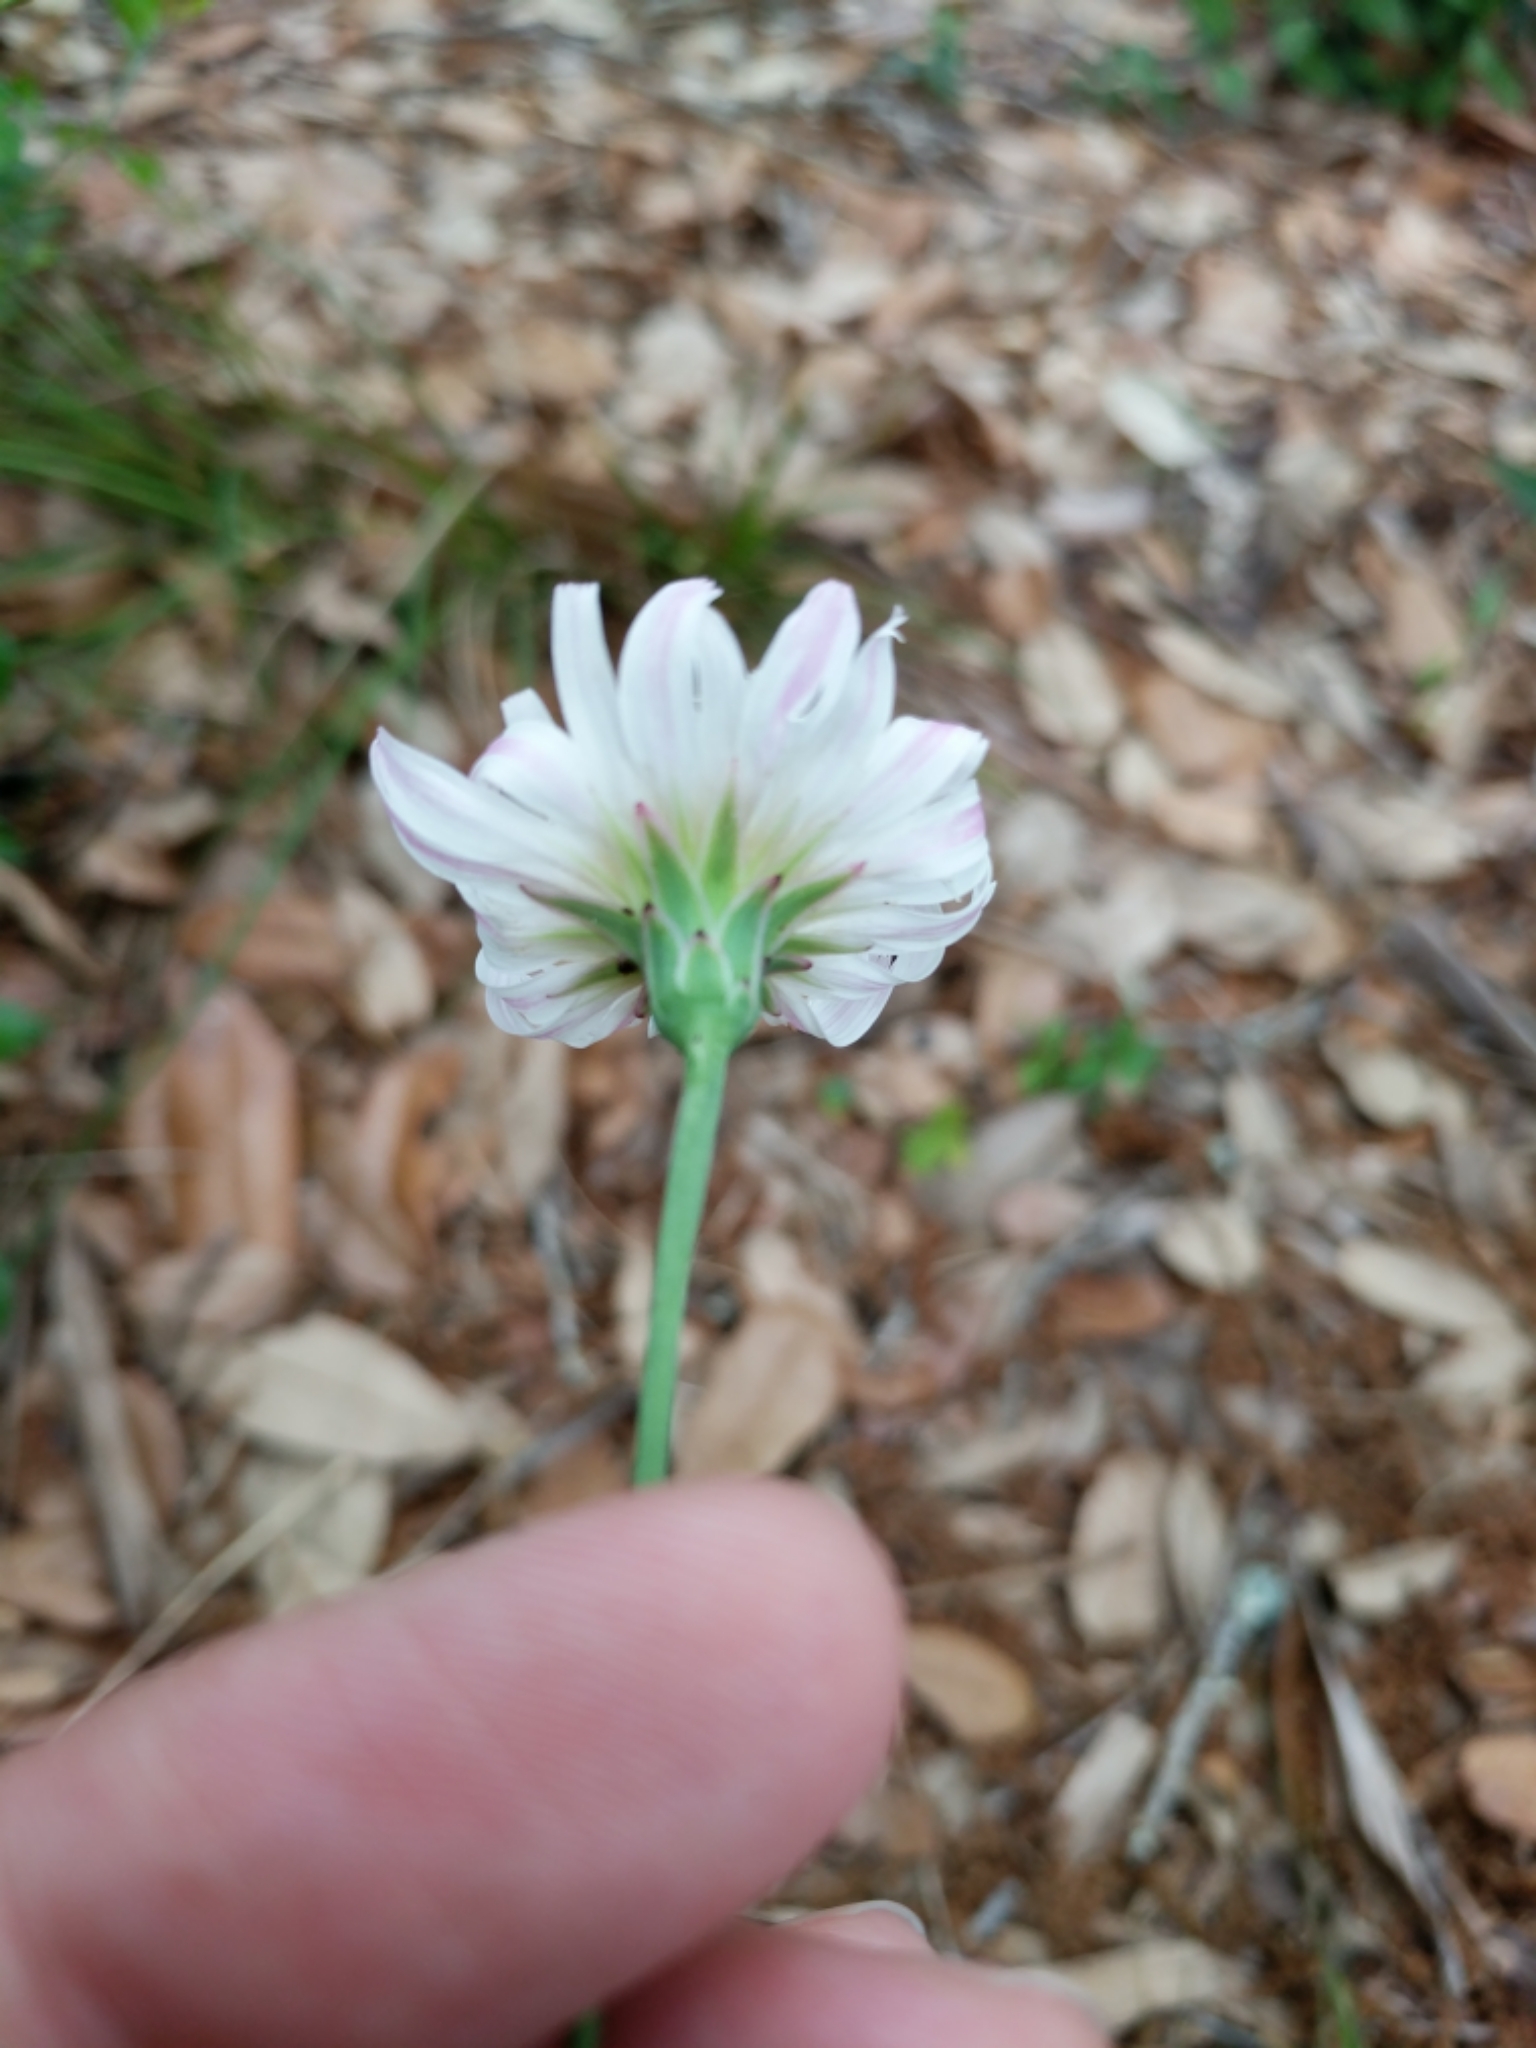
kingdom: Plantae
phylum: Tracheophyta
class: Magnoliopsida
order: Asterales
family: Asteraceae
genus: Pinaropappus
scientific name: Pinaropappus roseus
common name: Rock-lettuce
